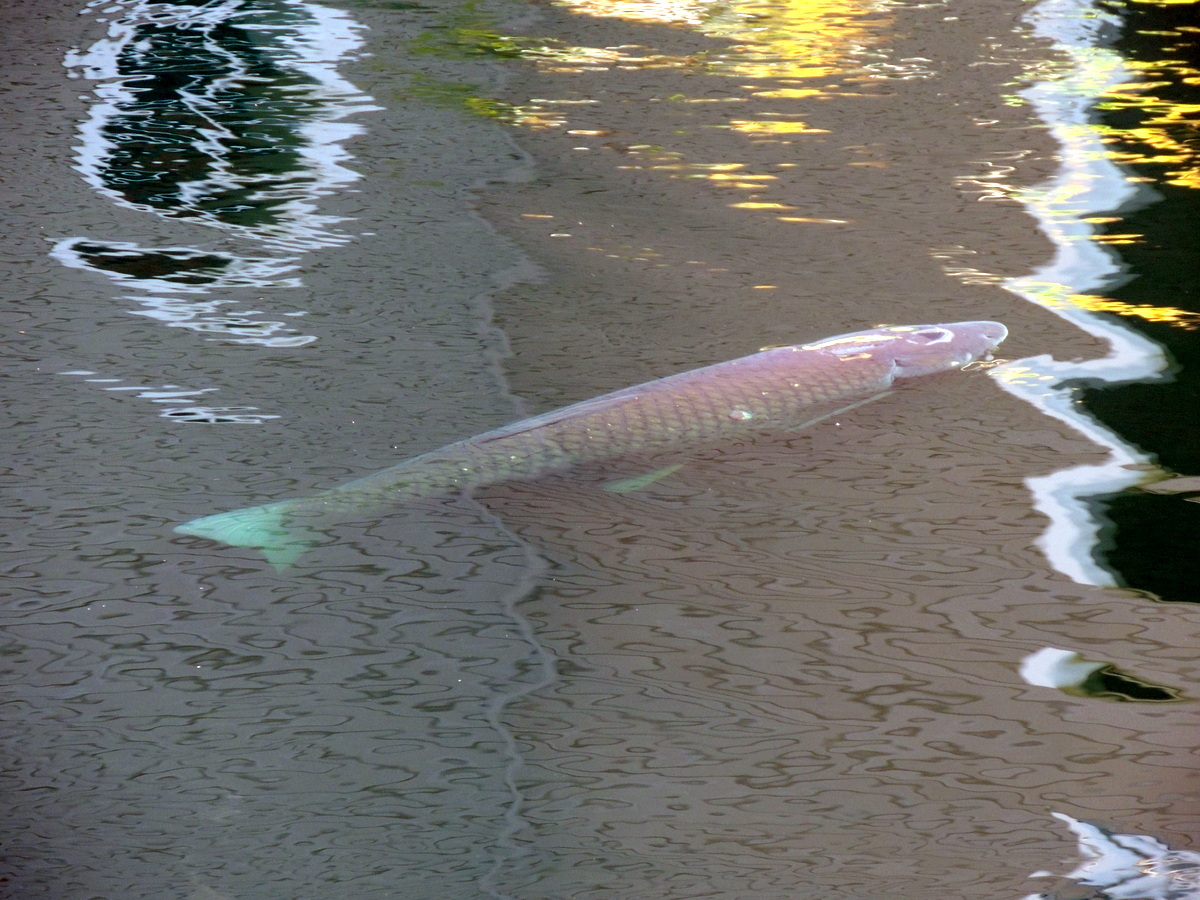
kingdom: Animalia
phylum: Chordata
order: Cypriniformes
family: Cyprinidae
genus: Ctenopharyngodon
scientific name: Ctenopharyngodon idella
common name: Grass carp
